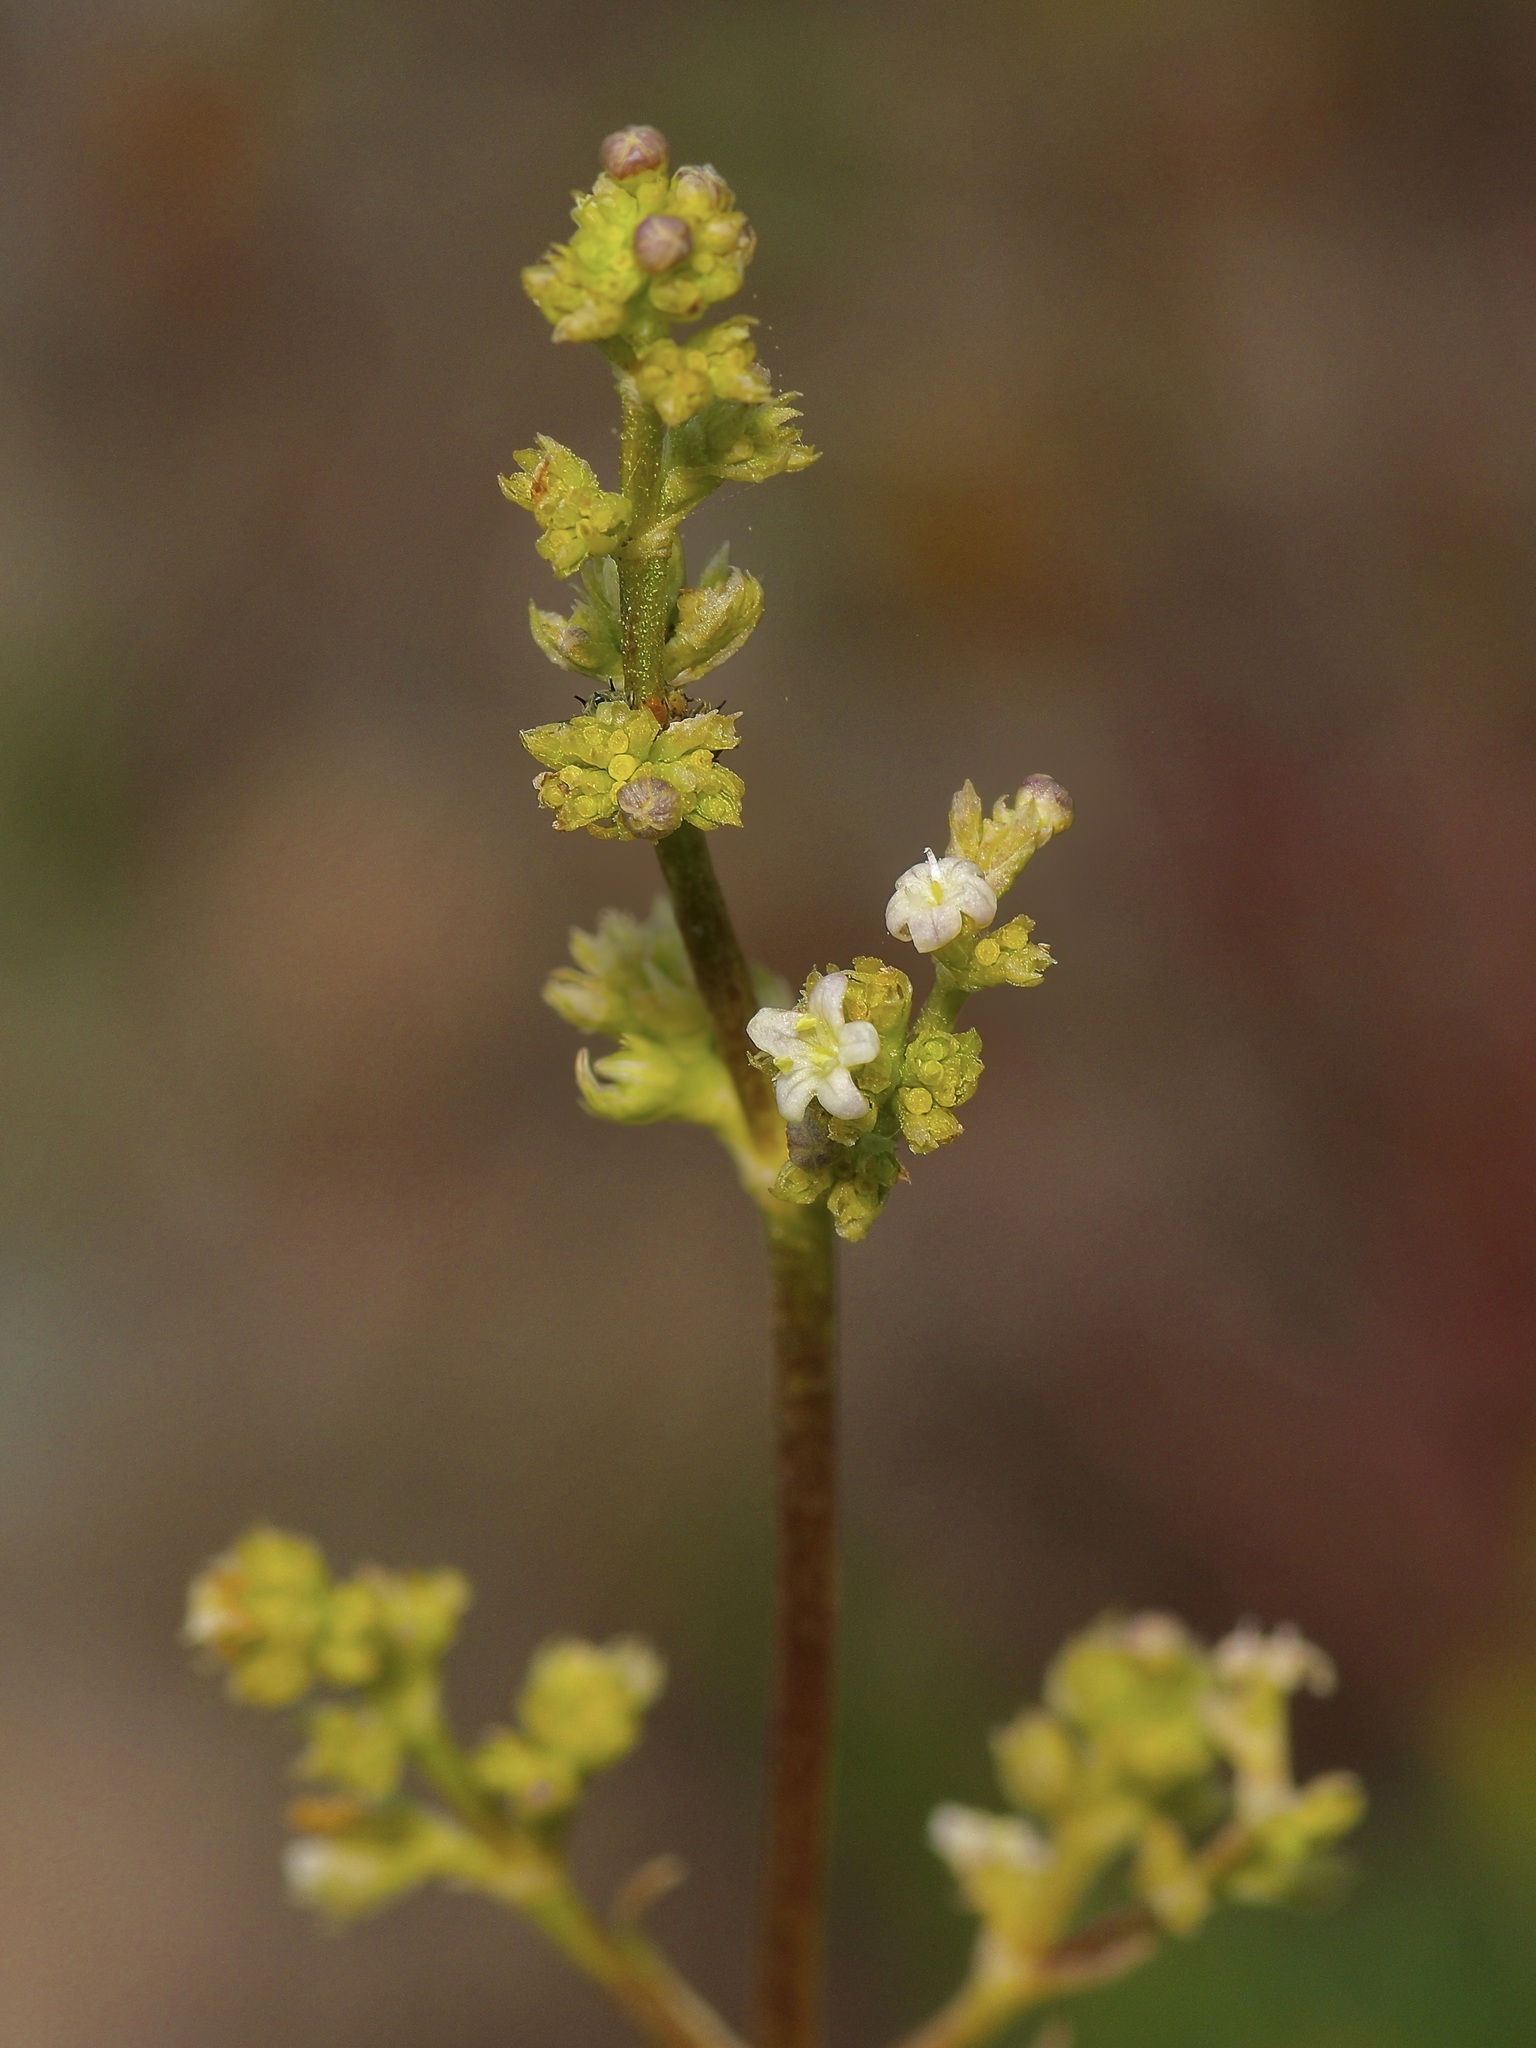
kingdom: Plantae
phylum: Tracheophyta
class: Magnoliopsida
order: Dipsacales
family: Caprifoliaceae
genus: Valeriana
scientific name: Valeriana edulis
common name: Taproot valerian
